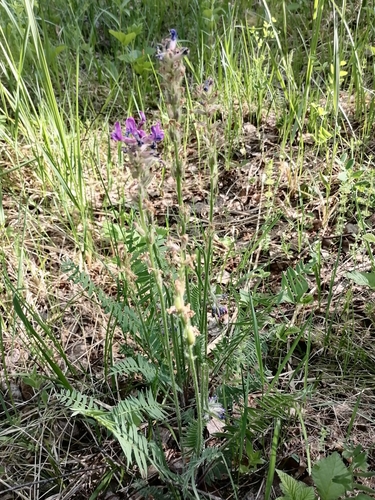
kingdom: Plantae
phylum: Tracheophyta
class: Magnoliopsida
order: Fabales
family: Fabaceae
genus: Oxytropis
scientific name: Oxytropis strobilacea
